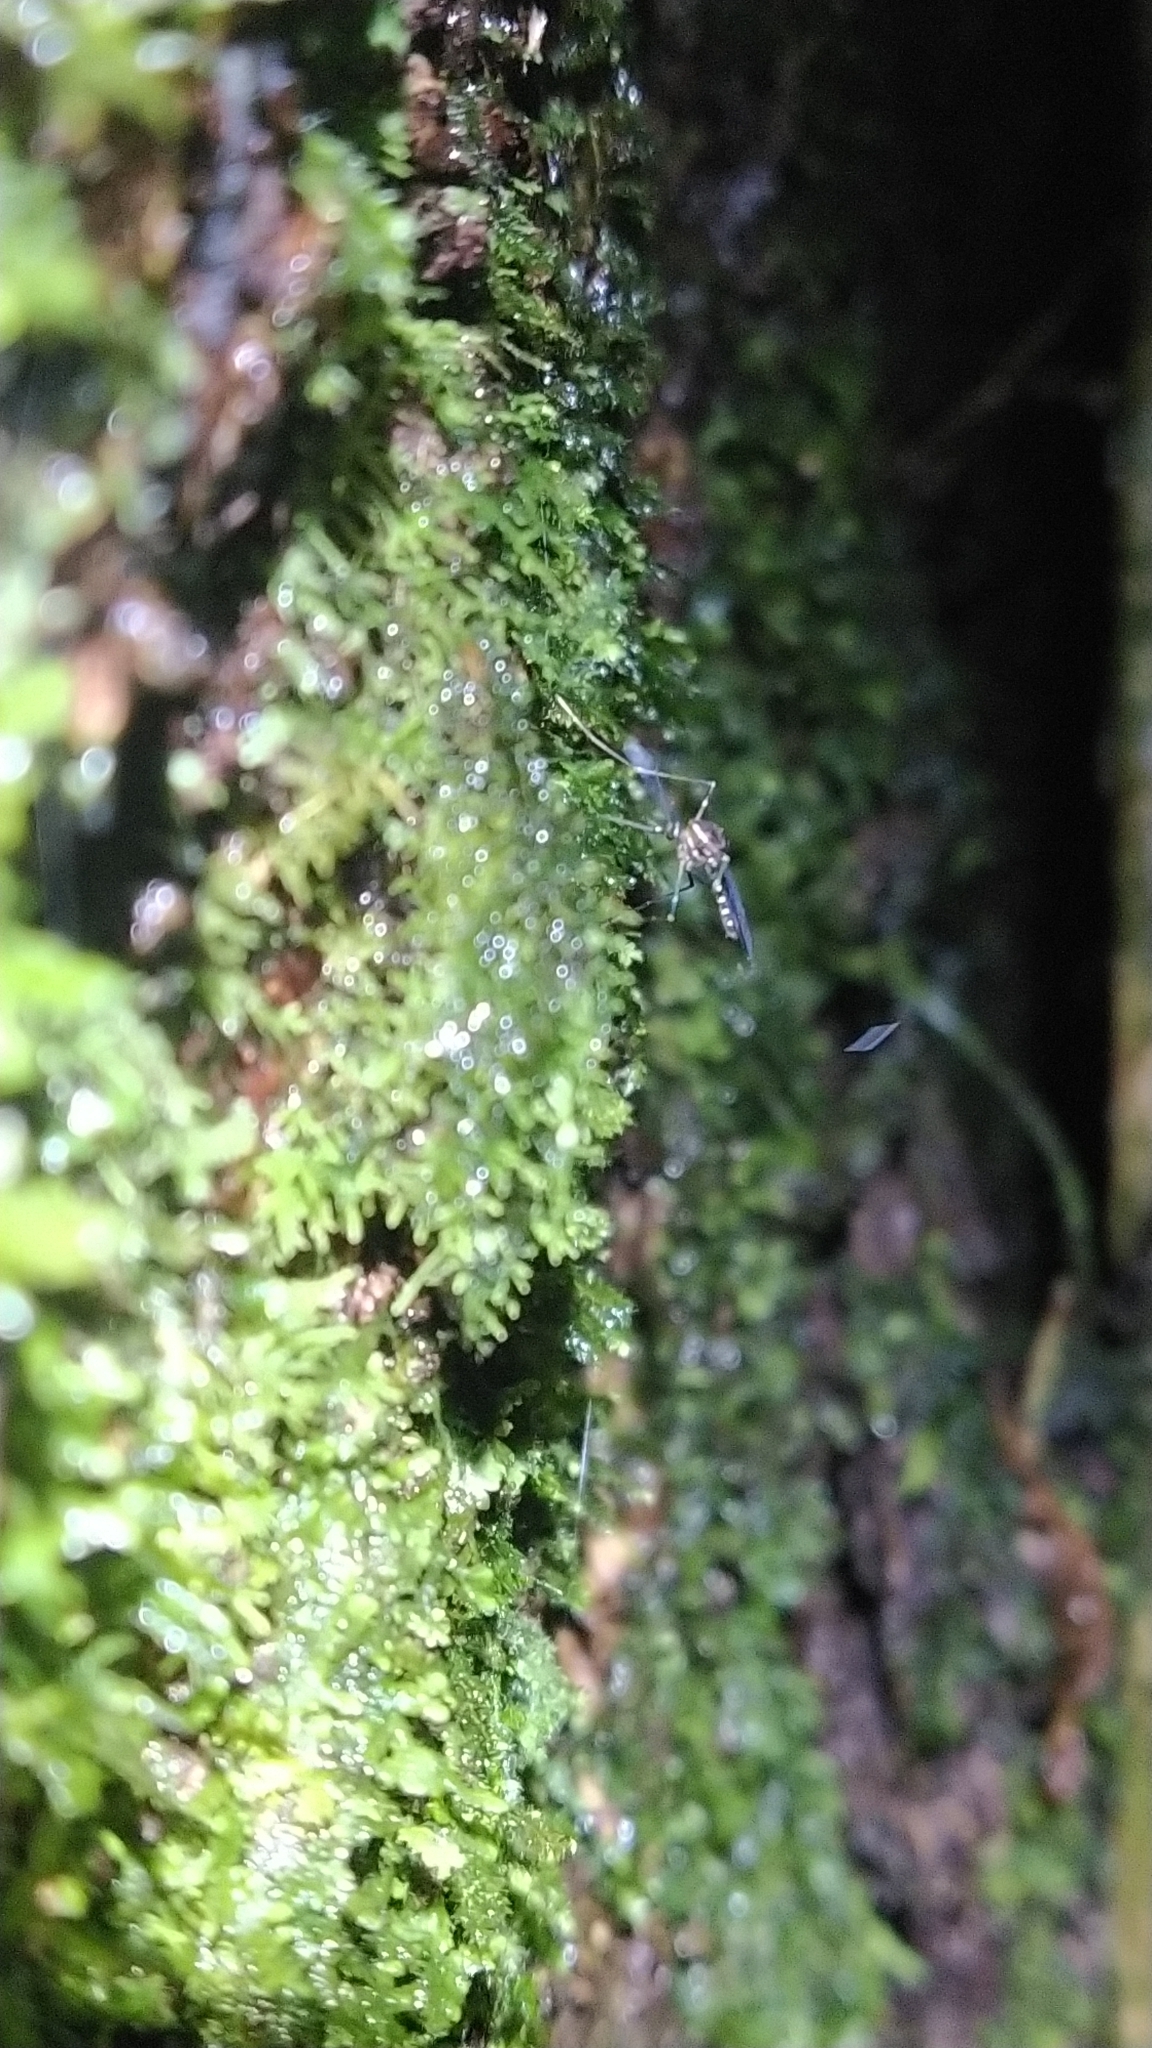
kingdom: Animalia
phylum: Arthropoda
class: Insecta
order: Diptera
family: Culicidae
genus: Maorigoeldia
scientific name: Maorigoeldia argyropus
